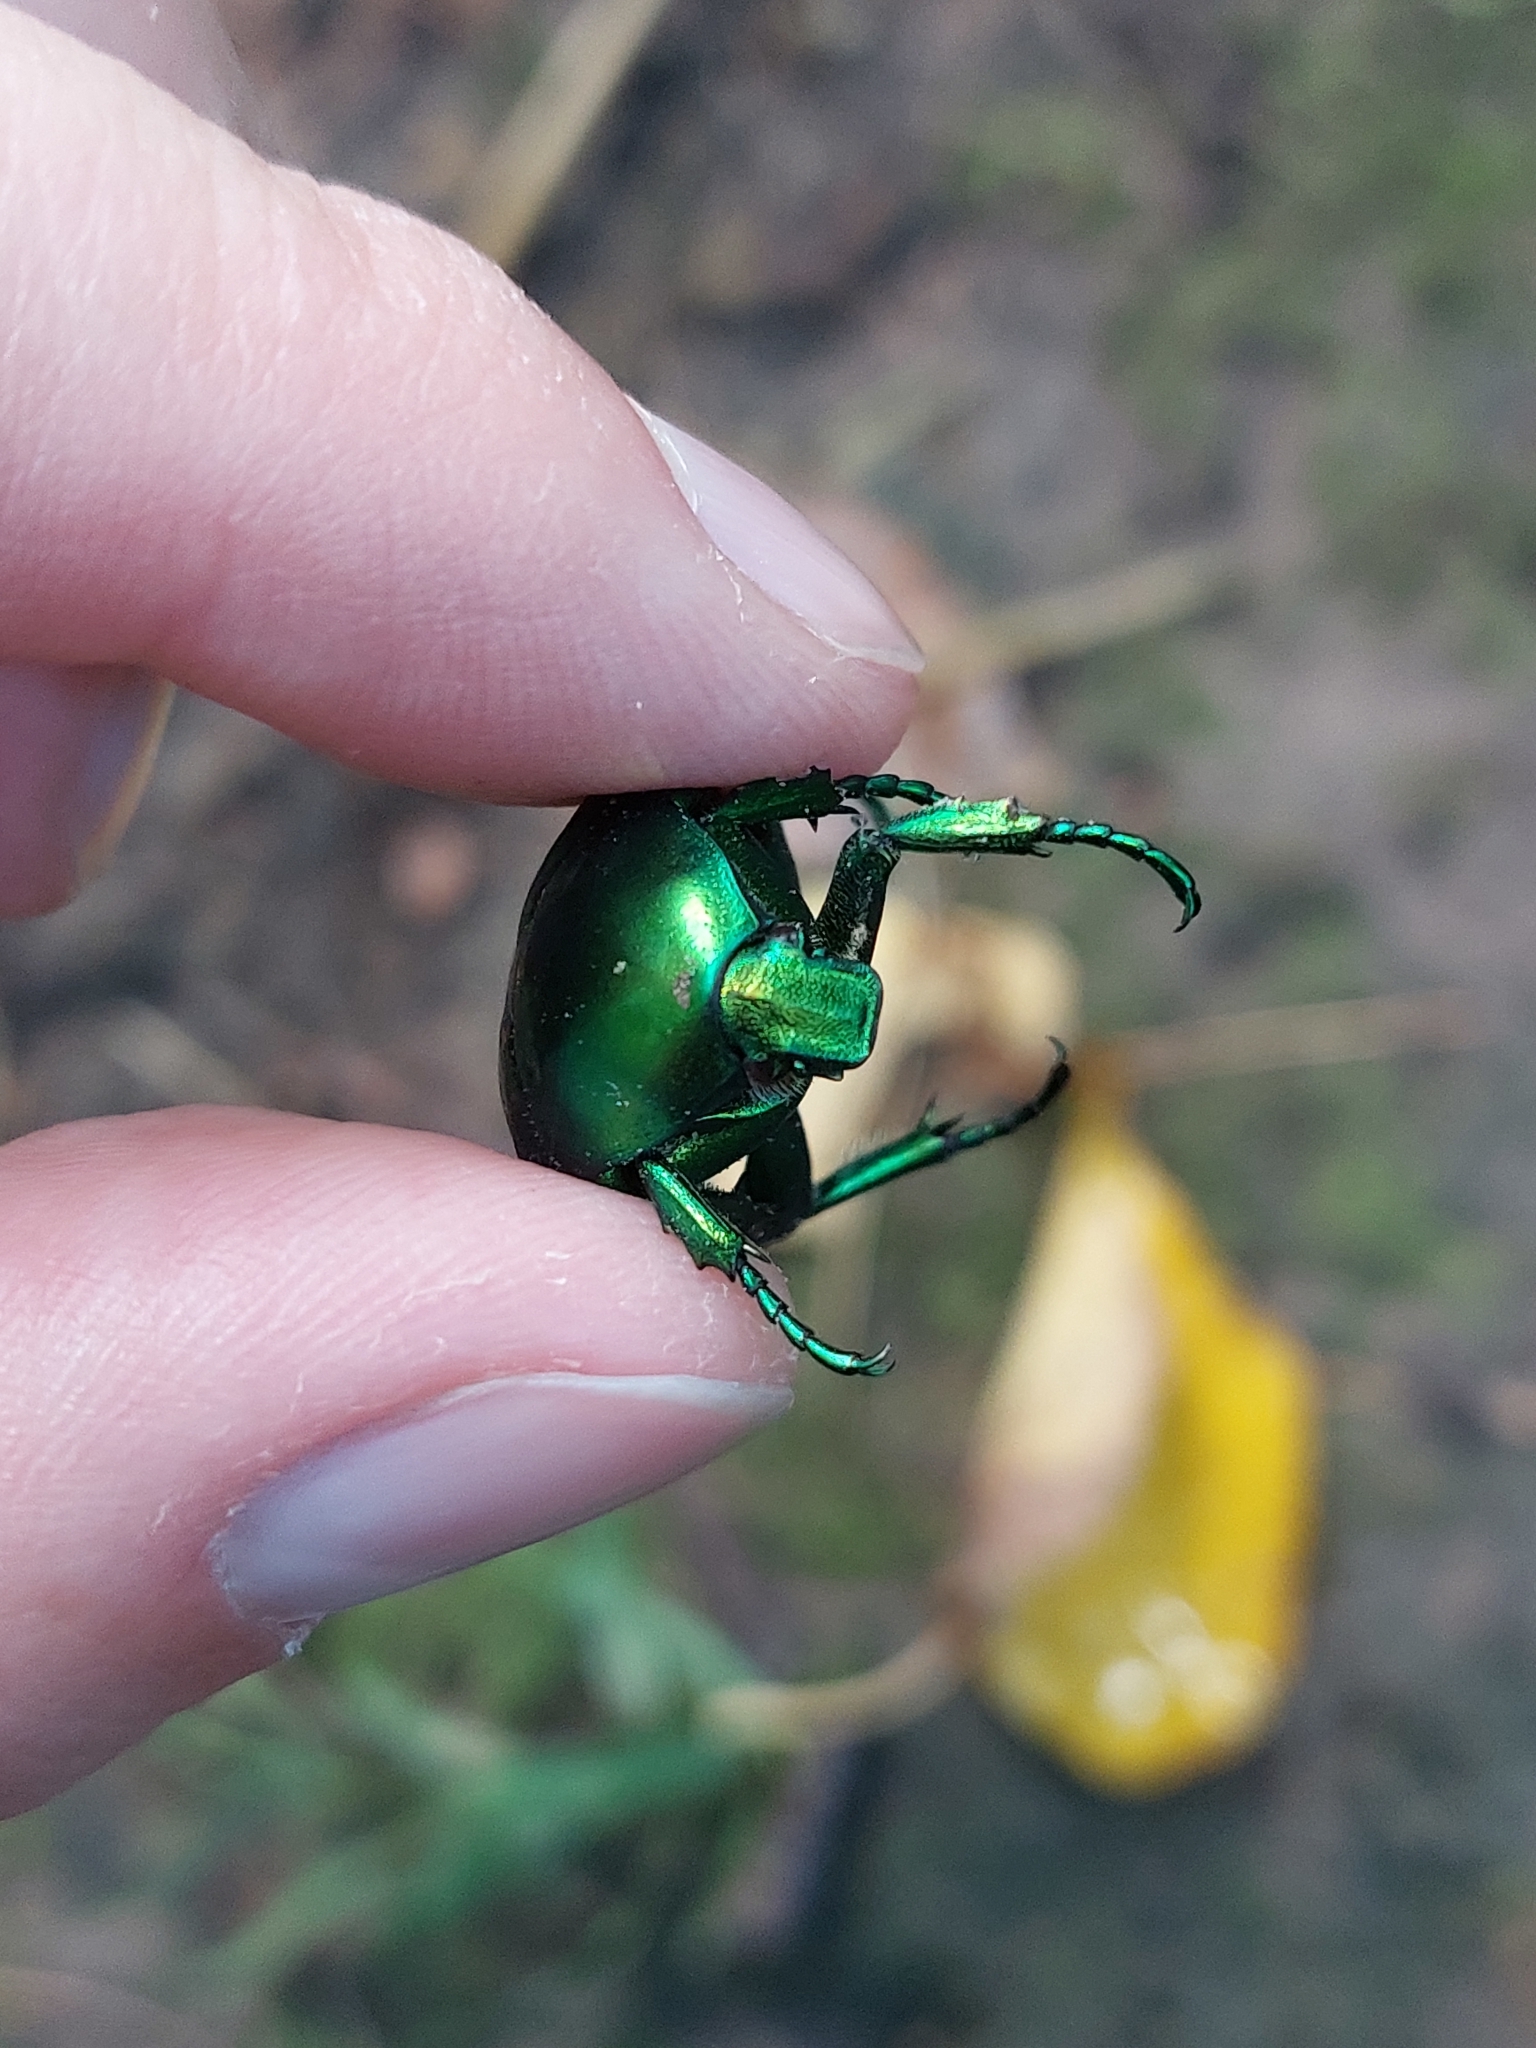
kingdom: Animalia
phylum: Arthropoda
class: Insecta
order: Coleoptera
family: Scarabaeidae
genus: Protaetia
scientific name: Protaetia speciosissima
